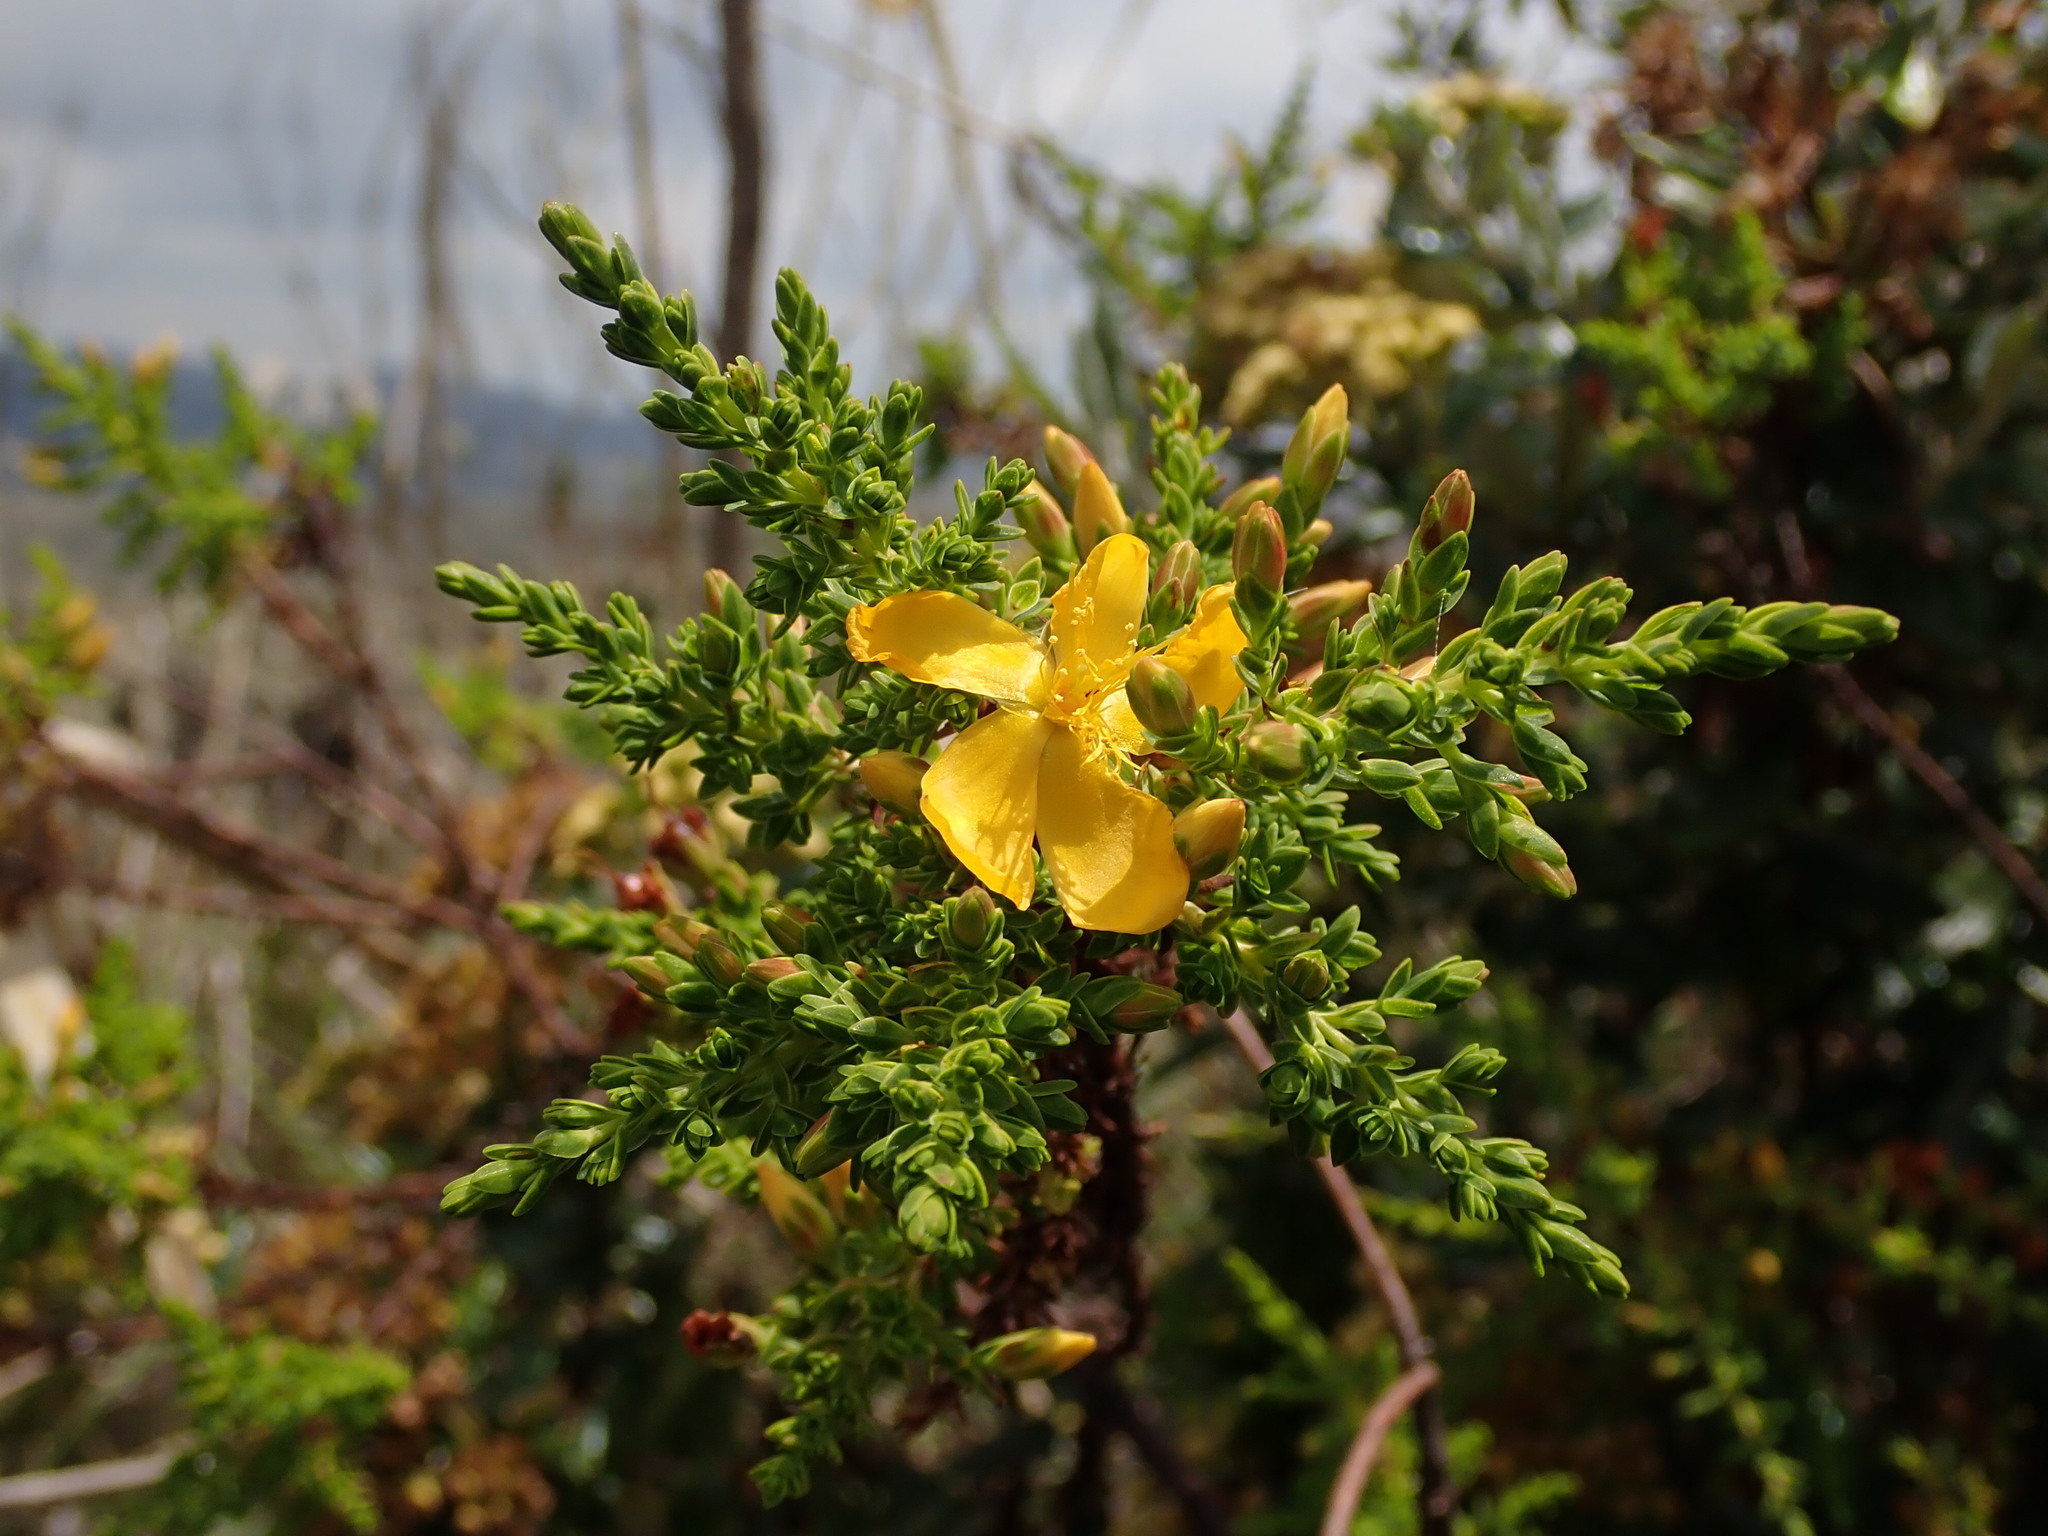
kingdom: Plantae
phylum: Tracheophyta
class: Magnoliopsida
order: Malpighiales
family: Hypericaceae
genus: Hypericum
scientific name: Hypericum laricifolium
